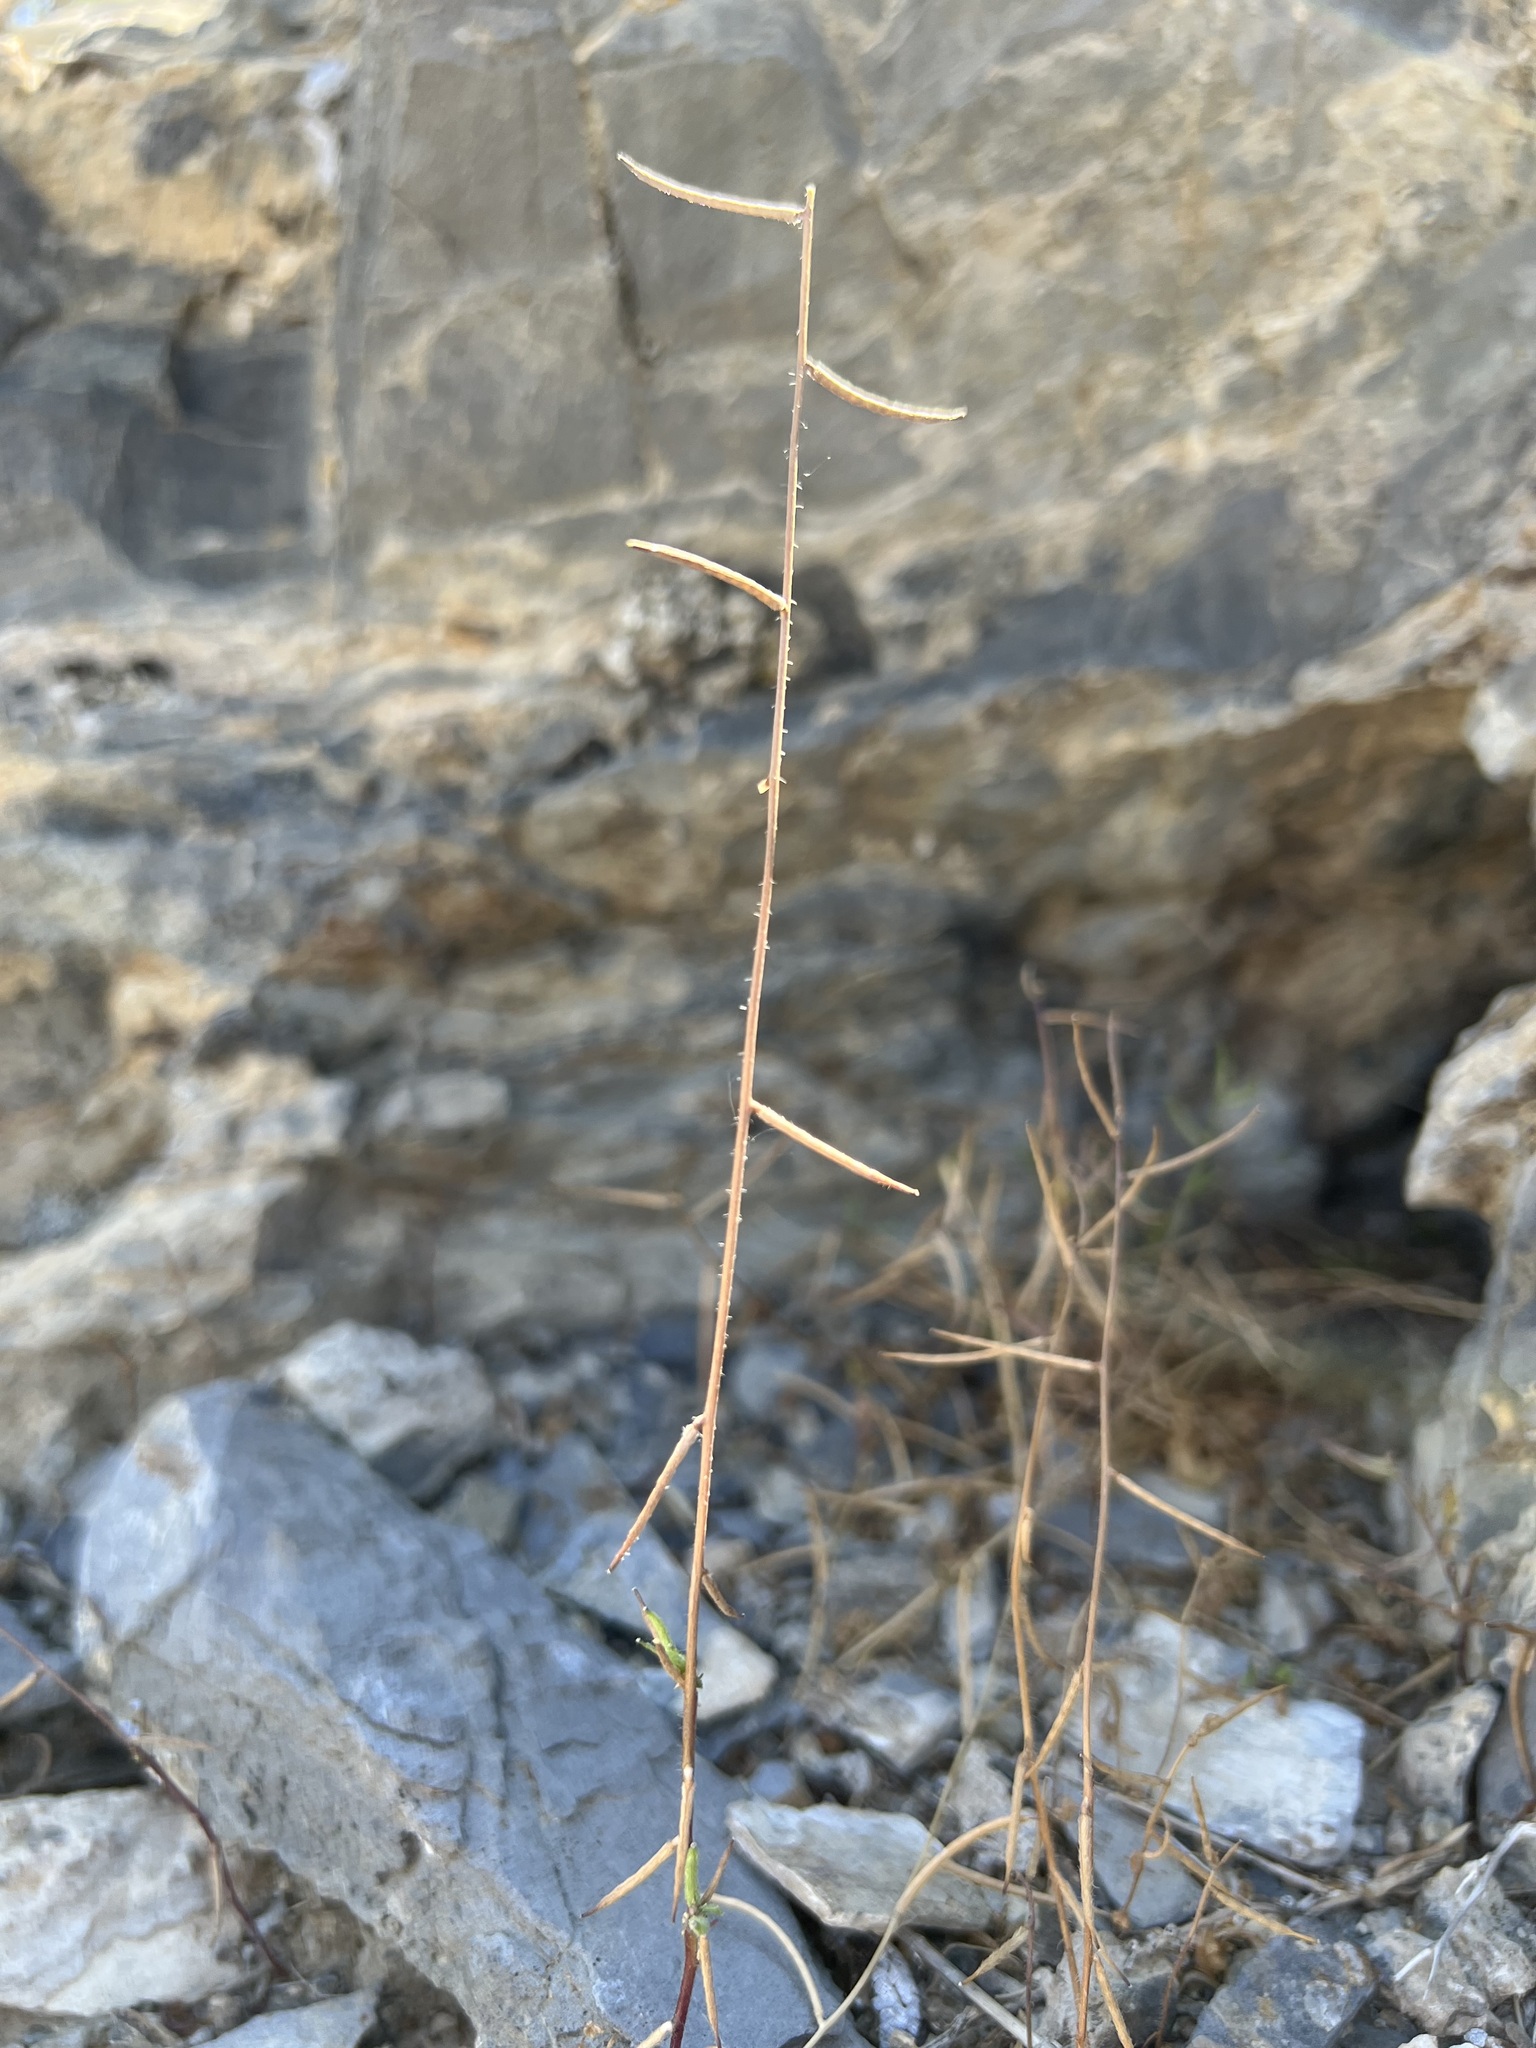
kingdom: Plantae
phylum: Tracheophyta
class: Magnoliopsida
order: Brassicales
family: Brassicaceae
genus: Streptanthus
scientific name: Streptanthus lasiophyllus
